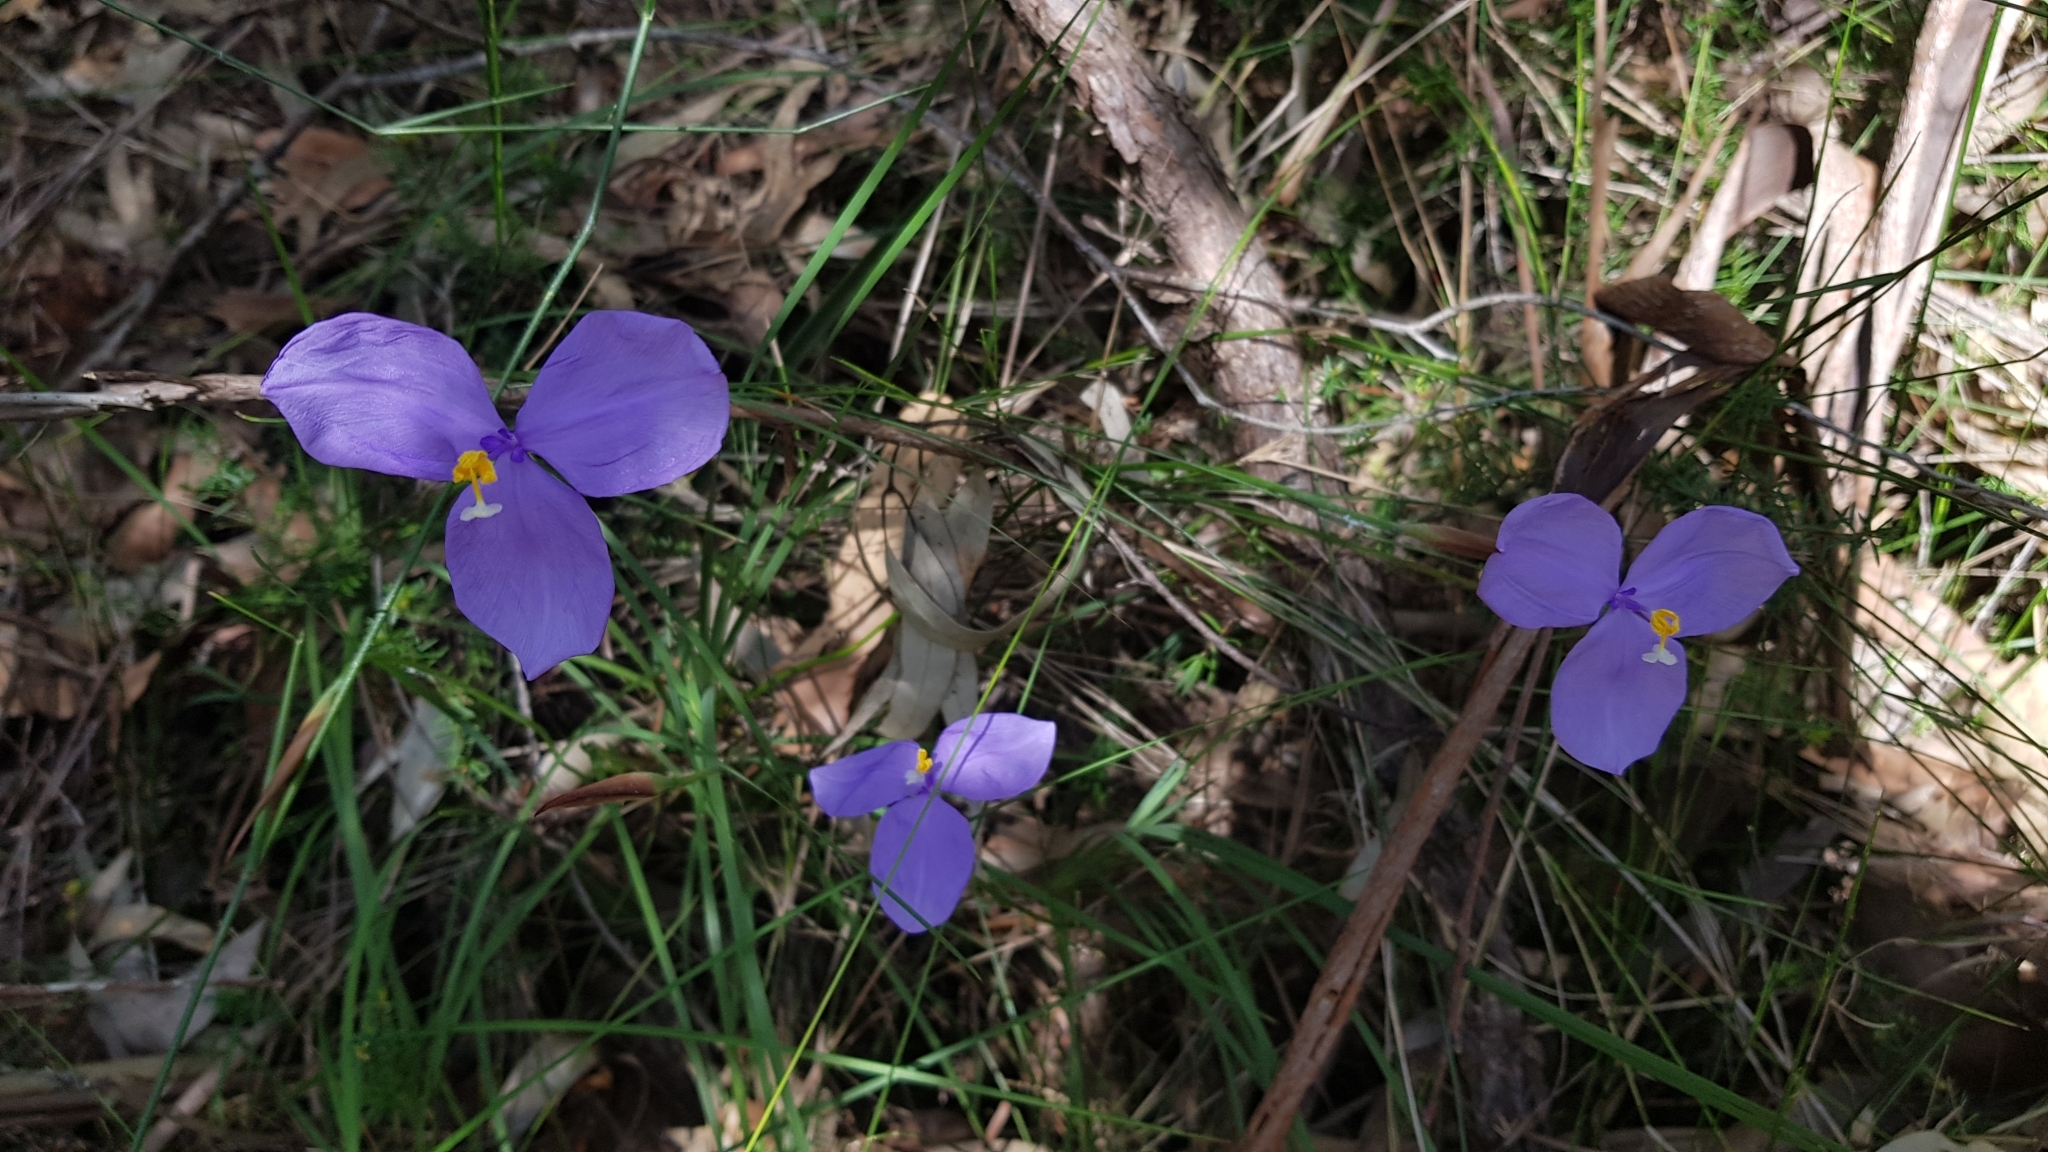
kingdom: Plantae
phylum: Tracheophyta
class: Liliopsida
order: Asparagales
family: Iridaceae
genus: Patersonia
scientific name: Patersonia glabrata
